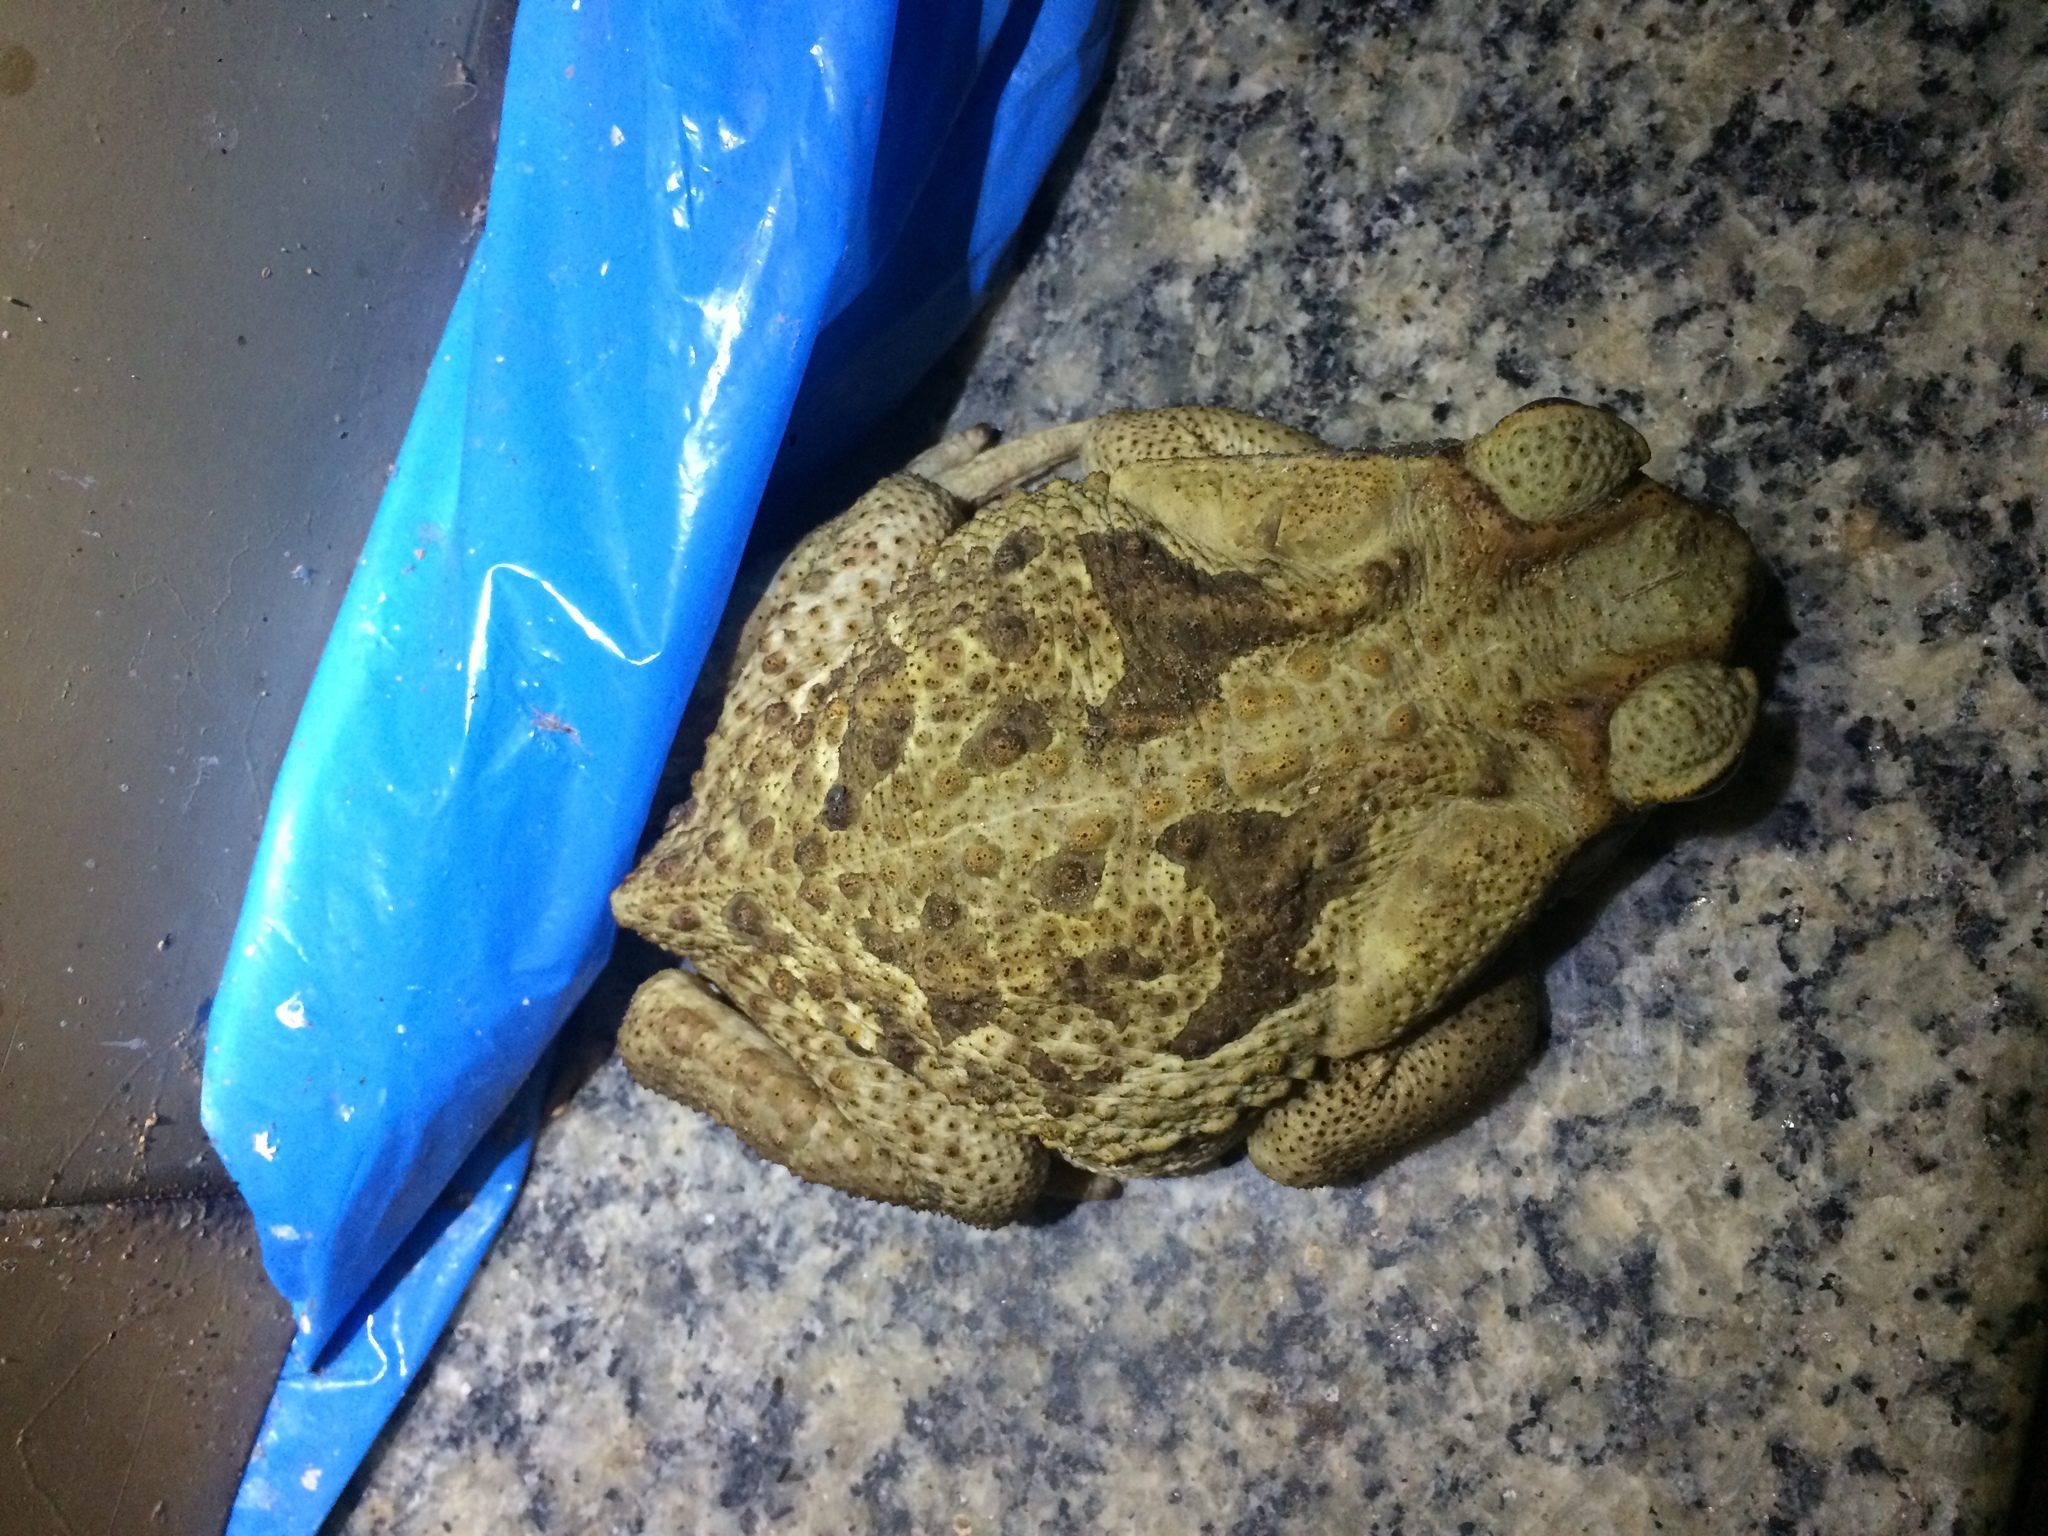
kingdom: Animalia
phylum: Chordata
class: Amphibia
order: Anura
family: Bufonidae
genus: Rhinella
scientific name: Rhinella diptycha
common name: Cope's toad
